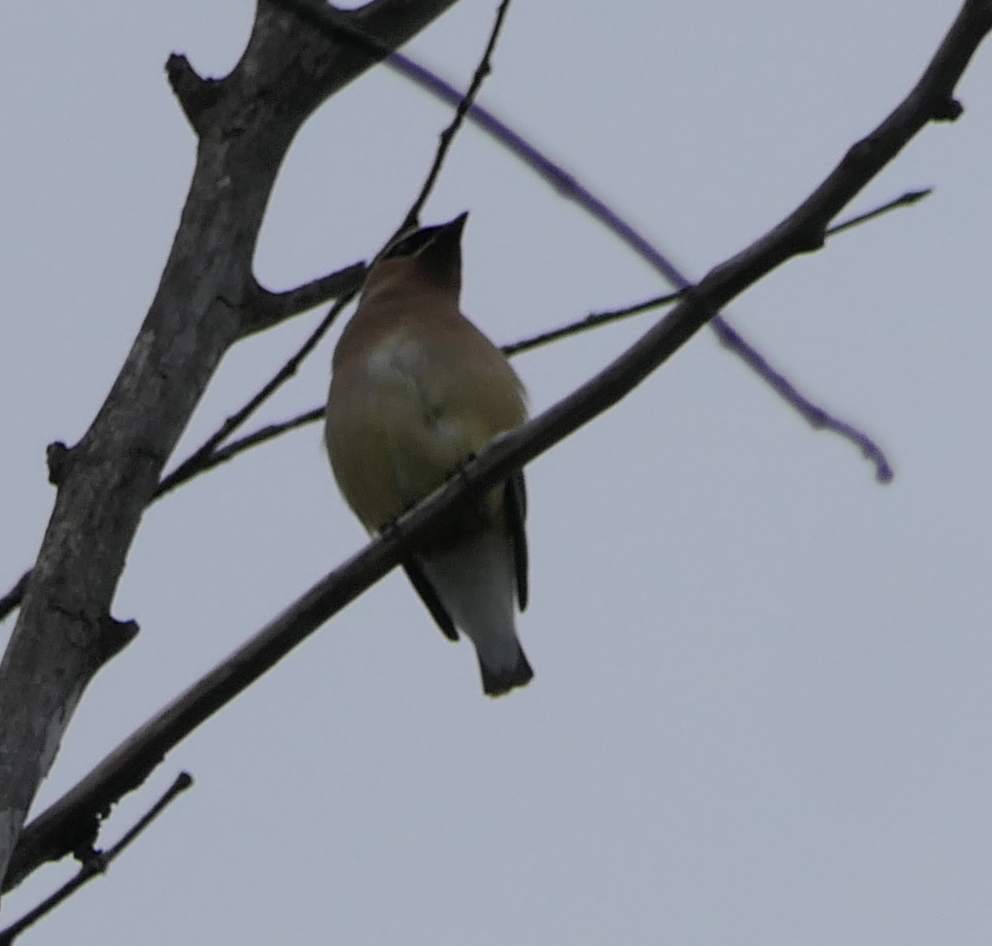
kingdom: Animalia
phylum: Chordata
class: Aves
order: Passeriformes
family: Bombycillidae
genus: Bombycilla
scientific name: Bombycilla cedrorum
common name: Cedar waxwing
